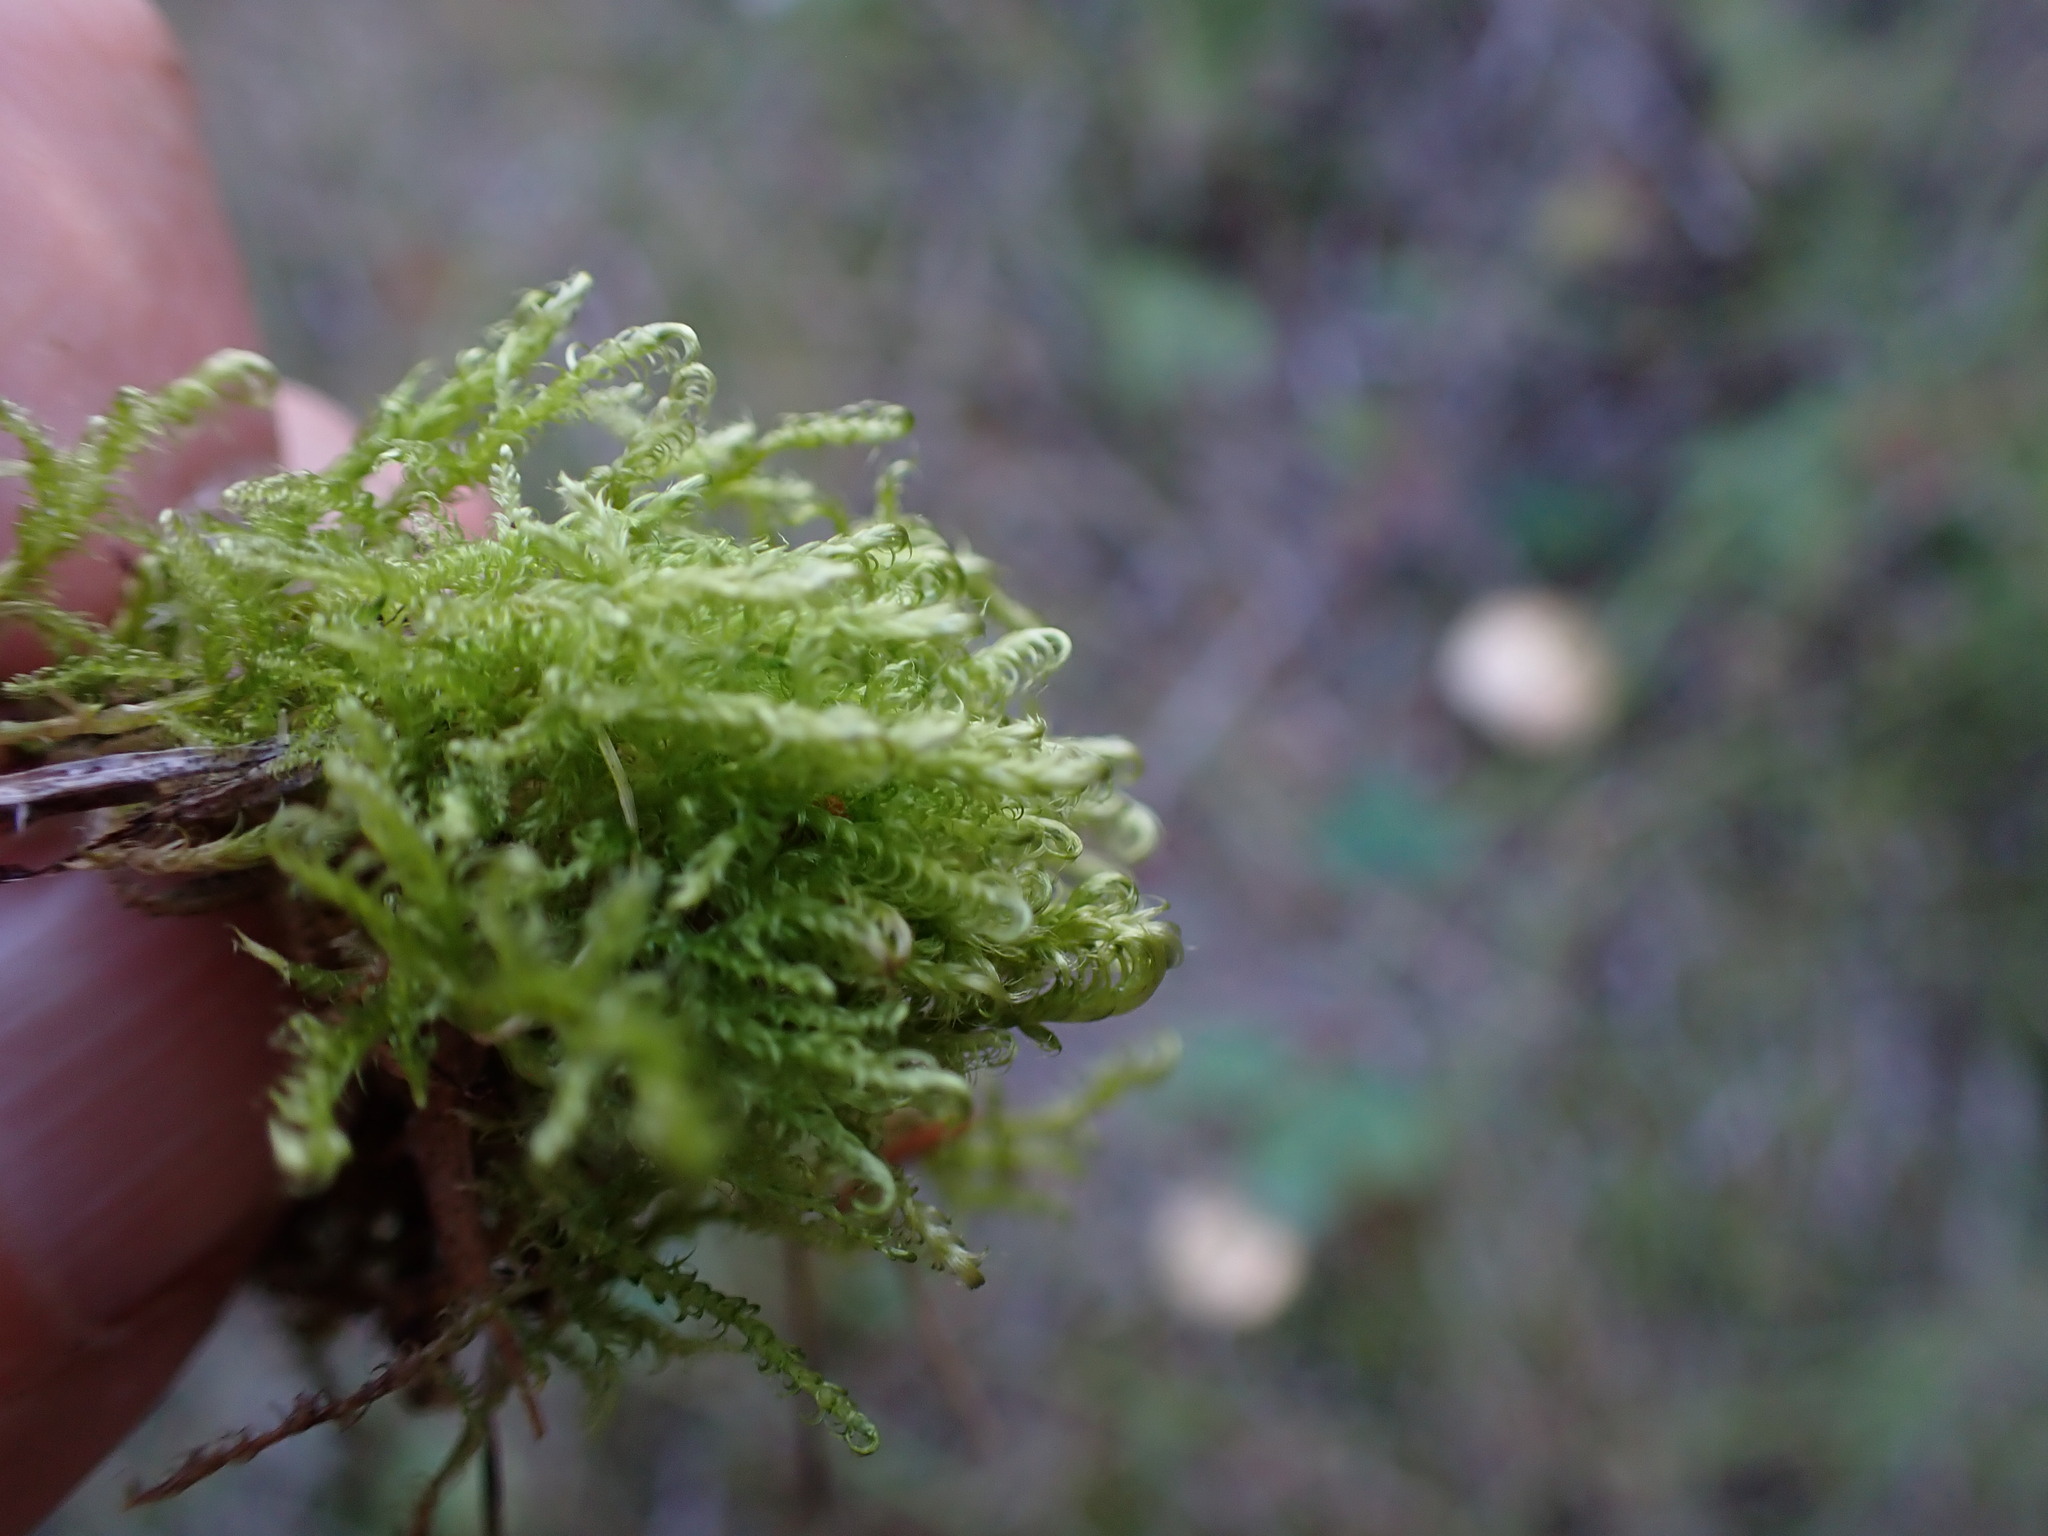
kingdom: Plantae
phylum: Bryophyta
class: Bryopsida
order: Hypnales
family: Scorpidiaceae
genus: Sanionia
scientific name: Sanionia uncinata
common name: Sickle moss
